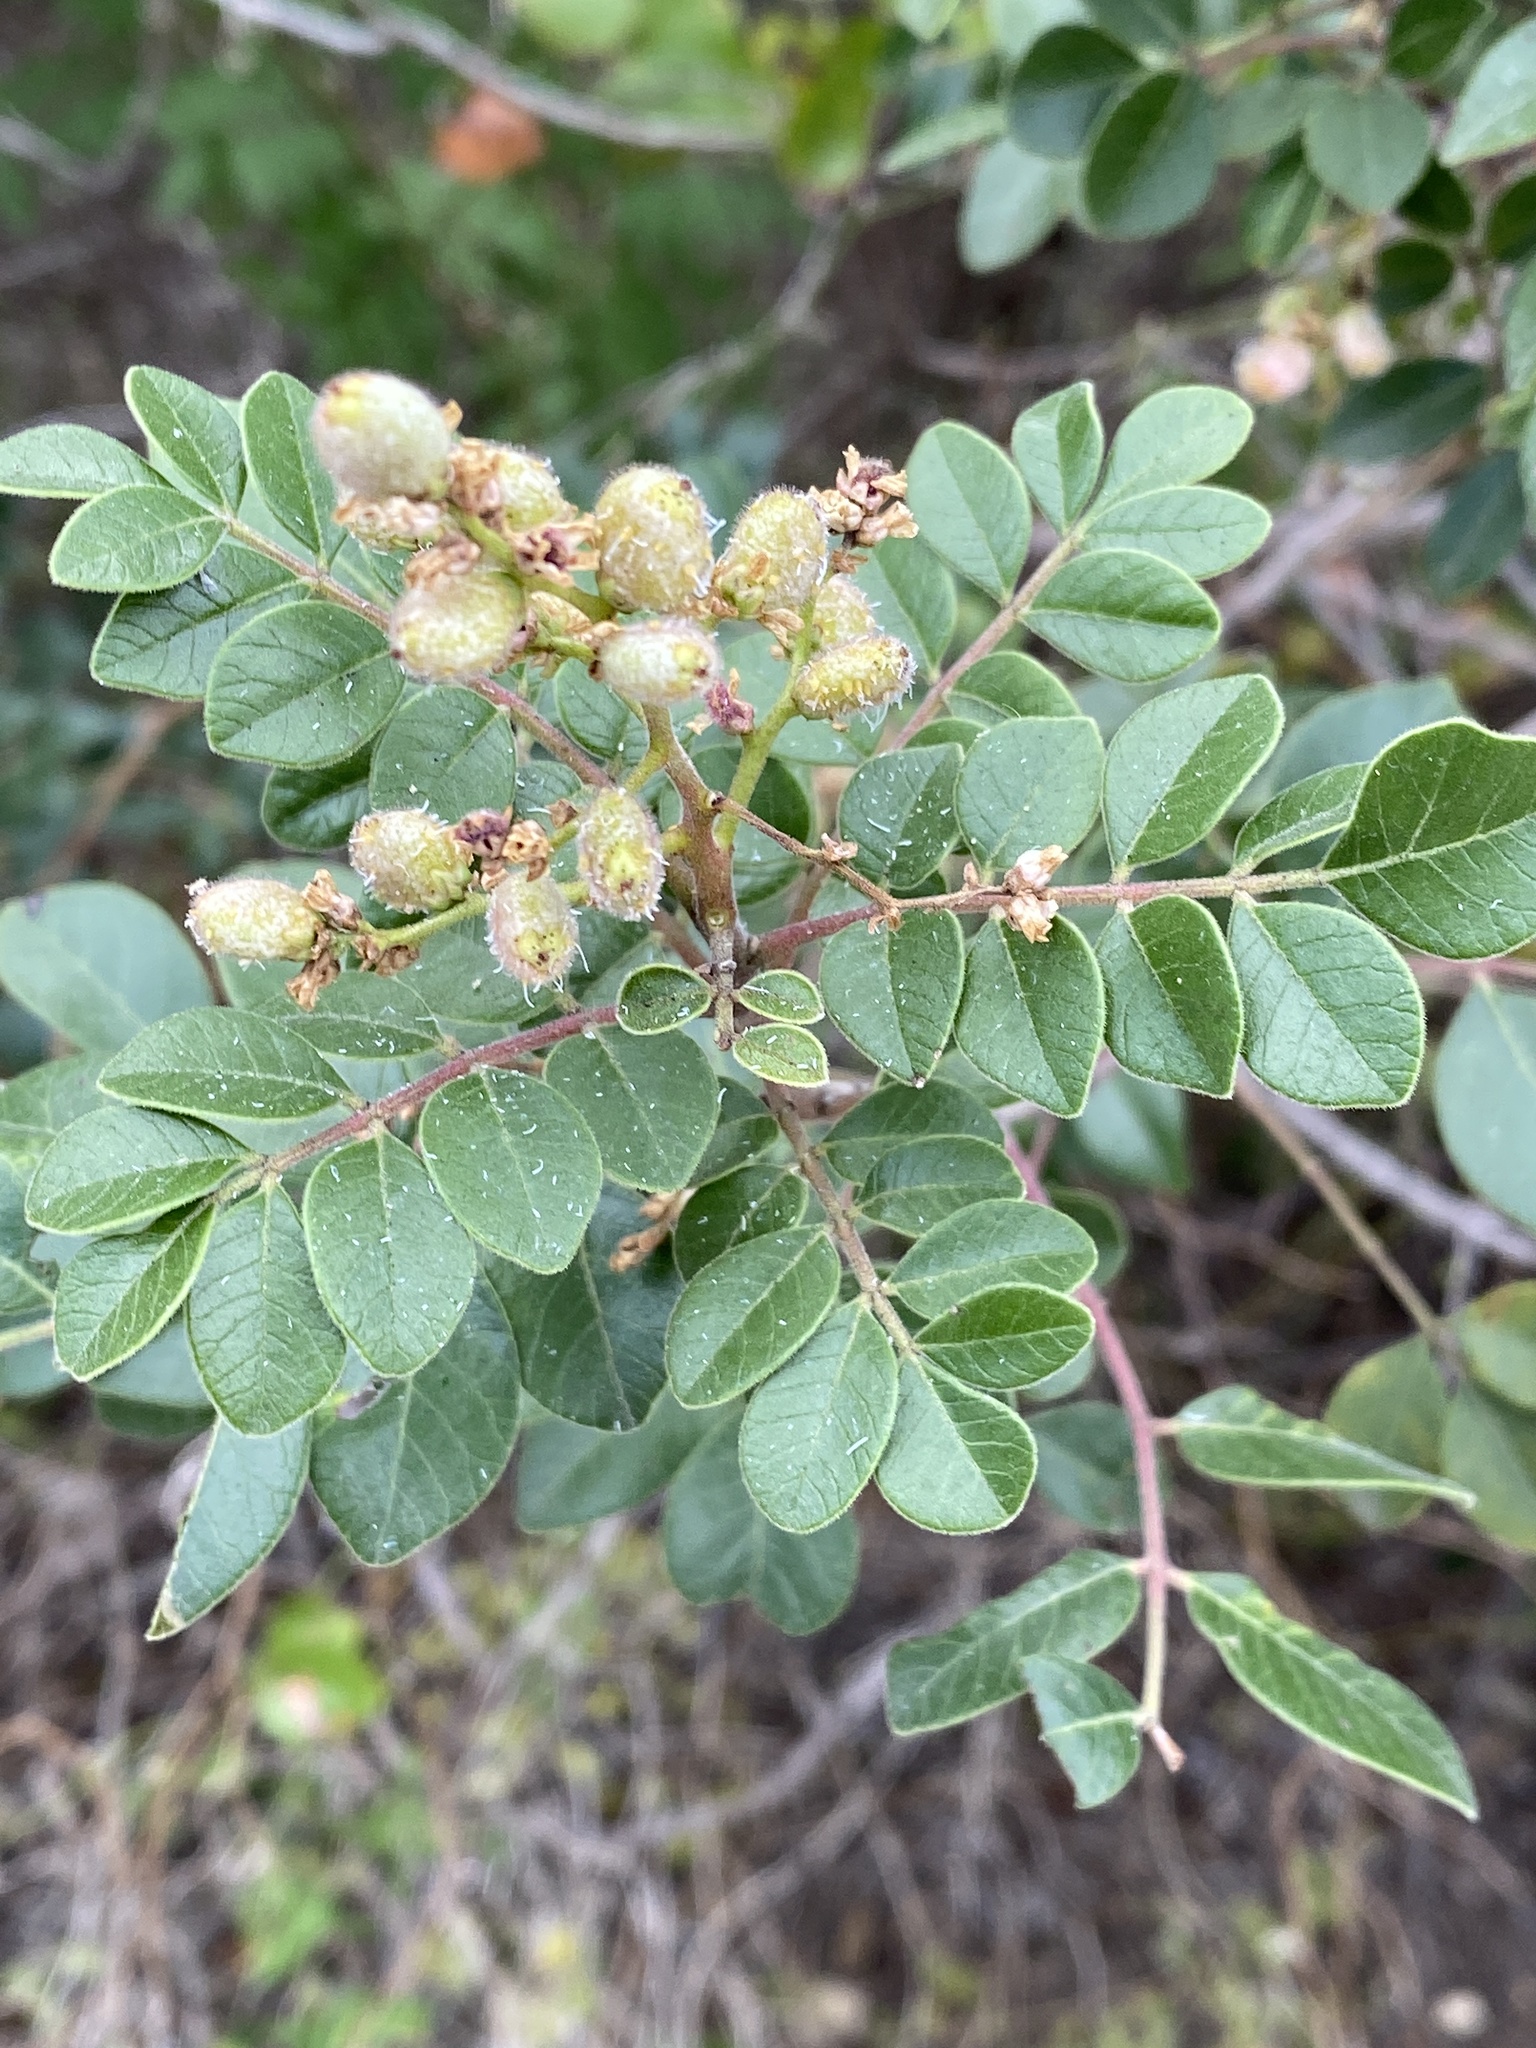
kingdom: Plantae
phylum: Tracheophyta
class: Magnoliopsida
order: Sapindales
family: Anacardiaceae
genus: Rhus
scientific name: Rhus virens
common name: Evergreen sumac
